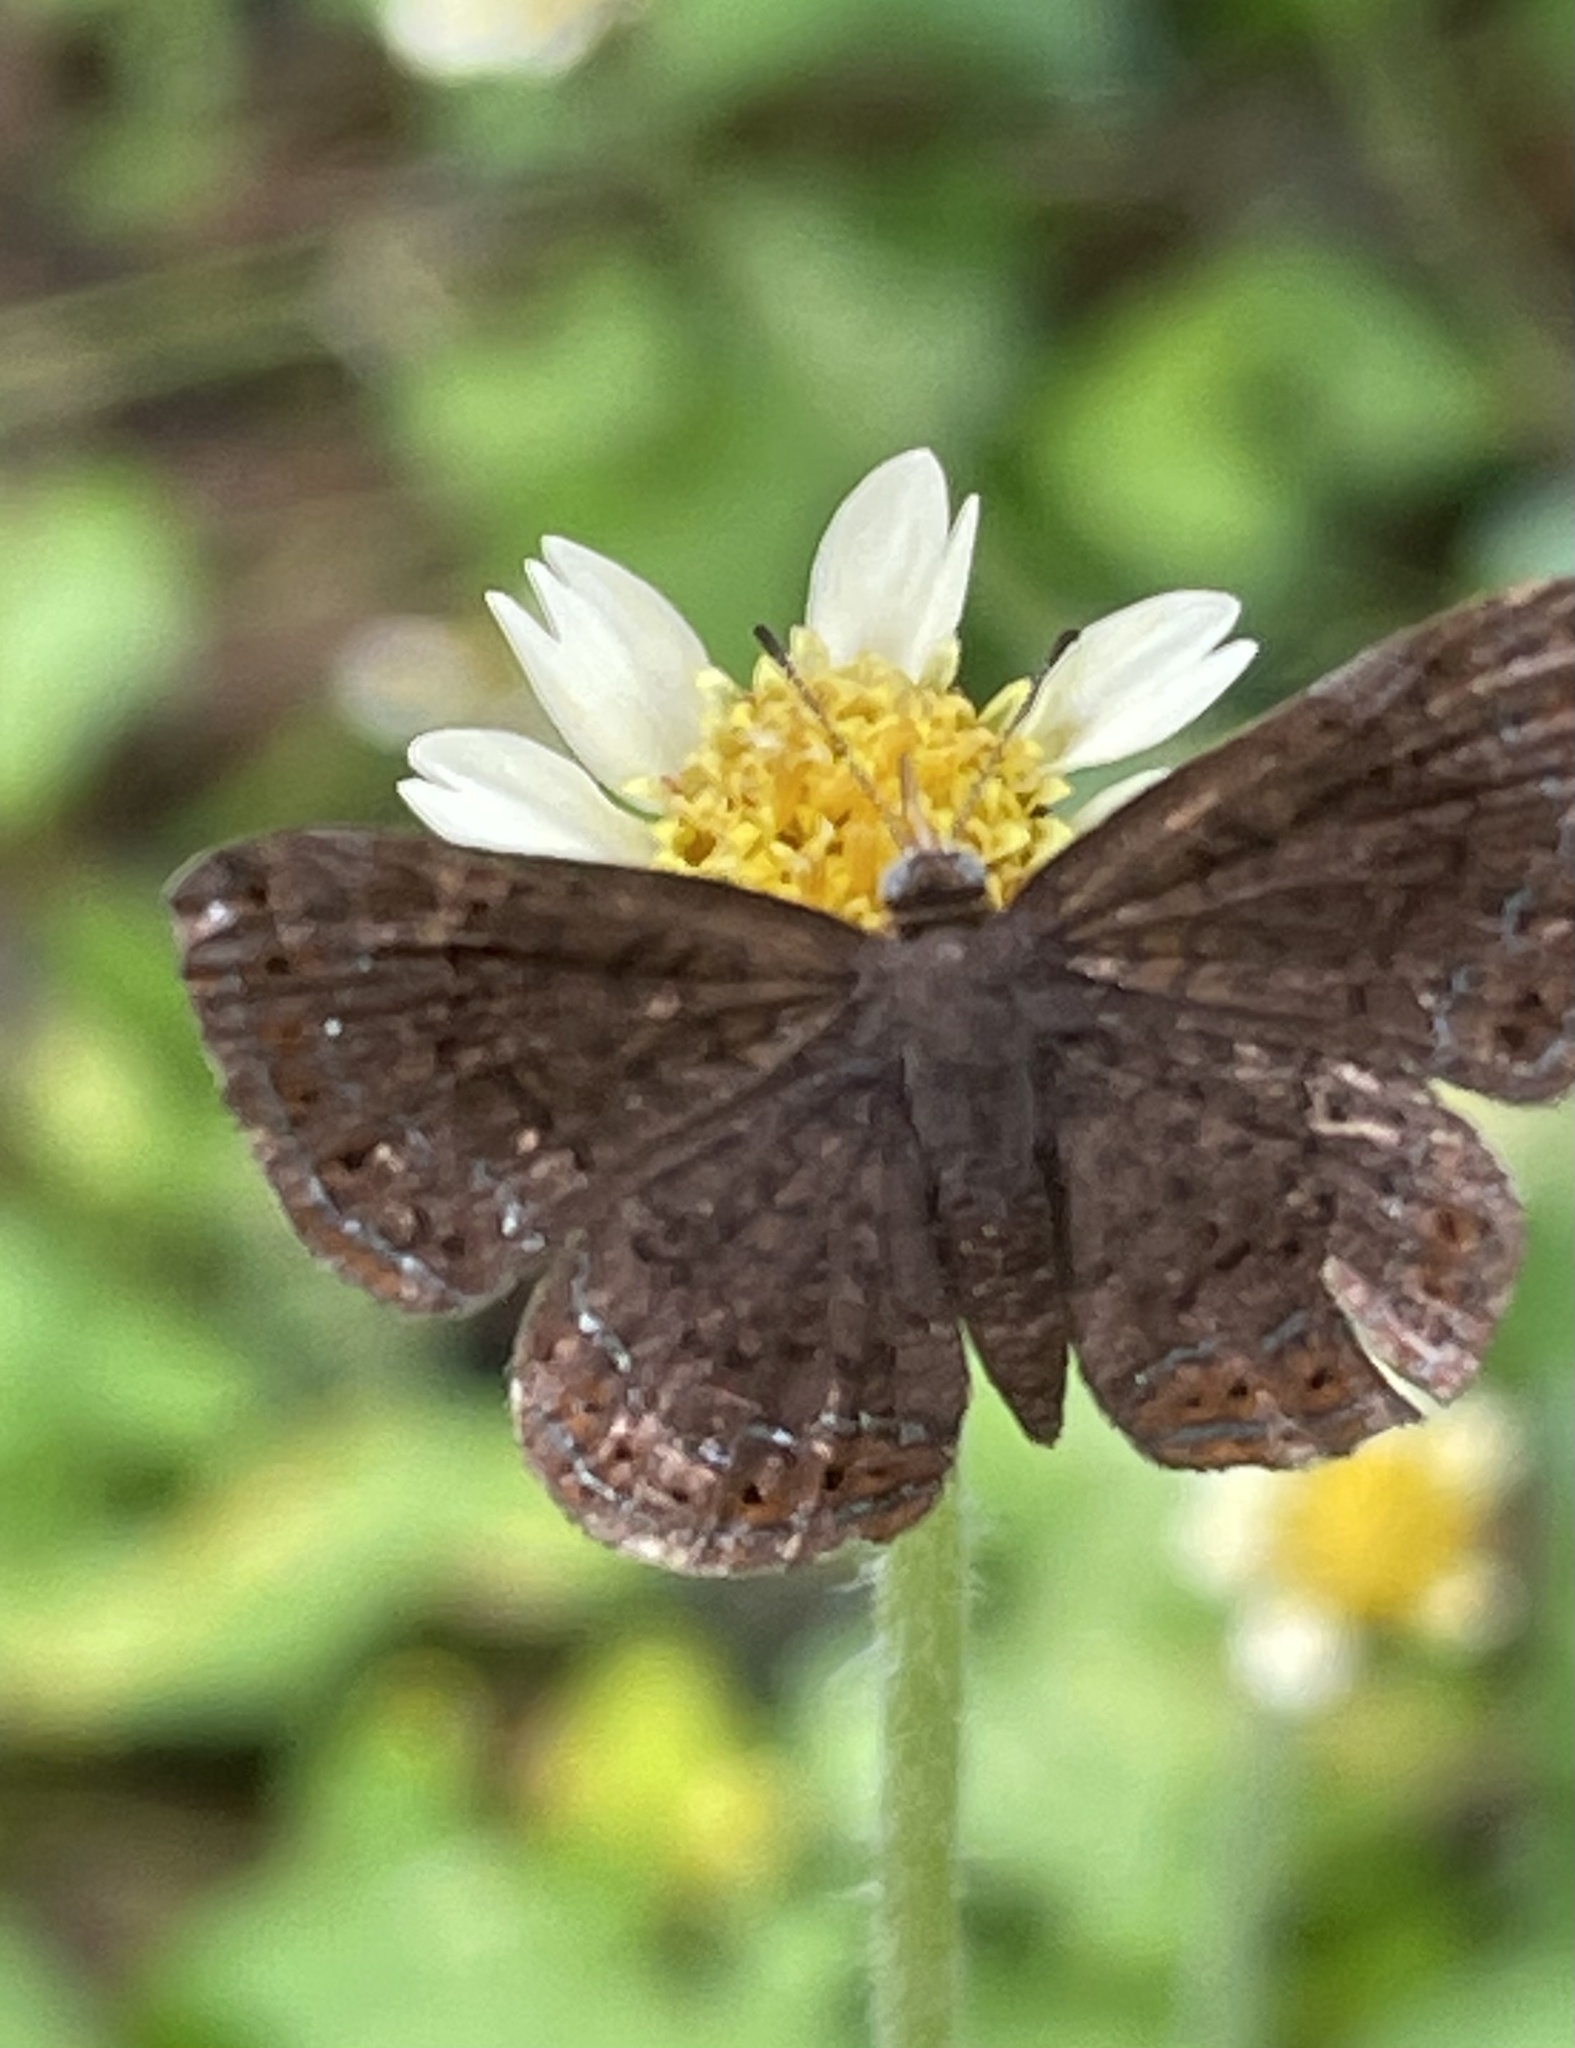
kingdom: Plantae
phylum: Tracheophyta
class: Magnoliopsida
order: Asterales
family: Asteraceae
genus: Tridax
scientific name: Tridax procumbens
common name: Coatbuttons
